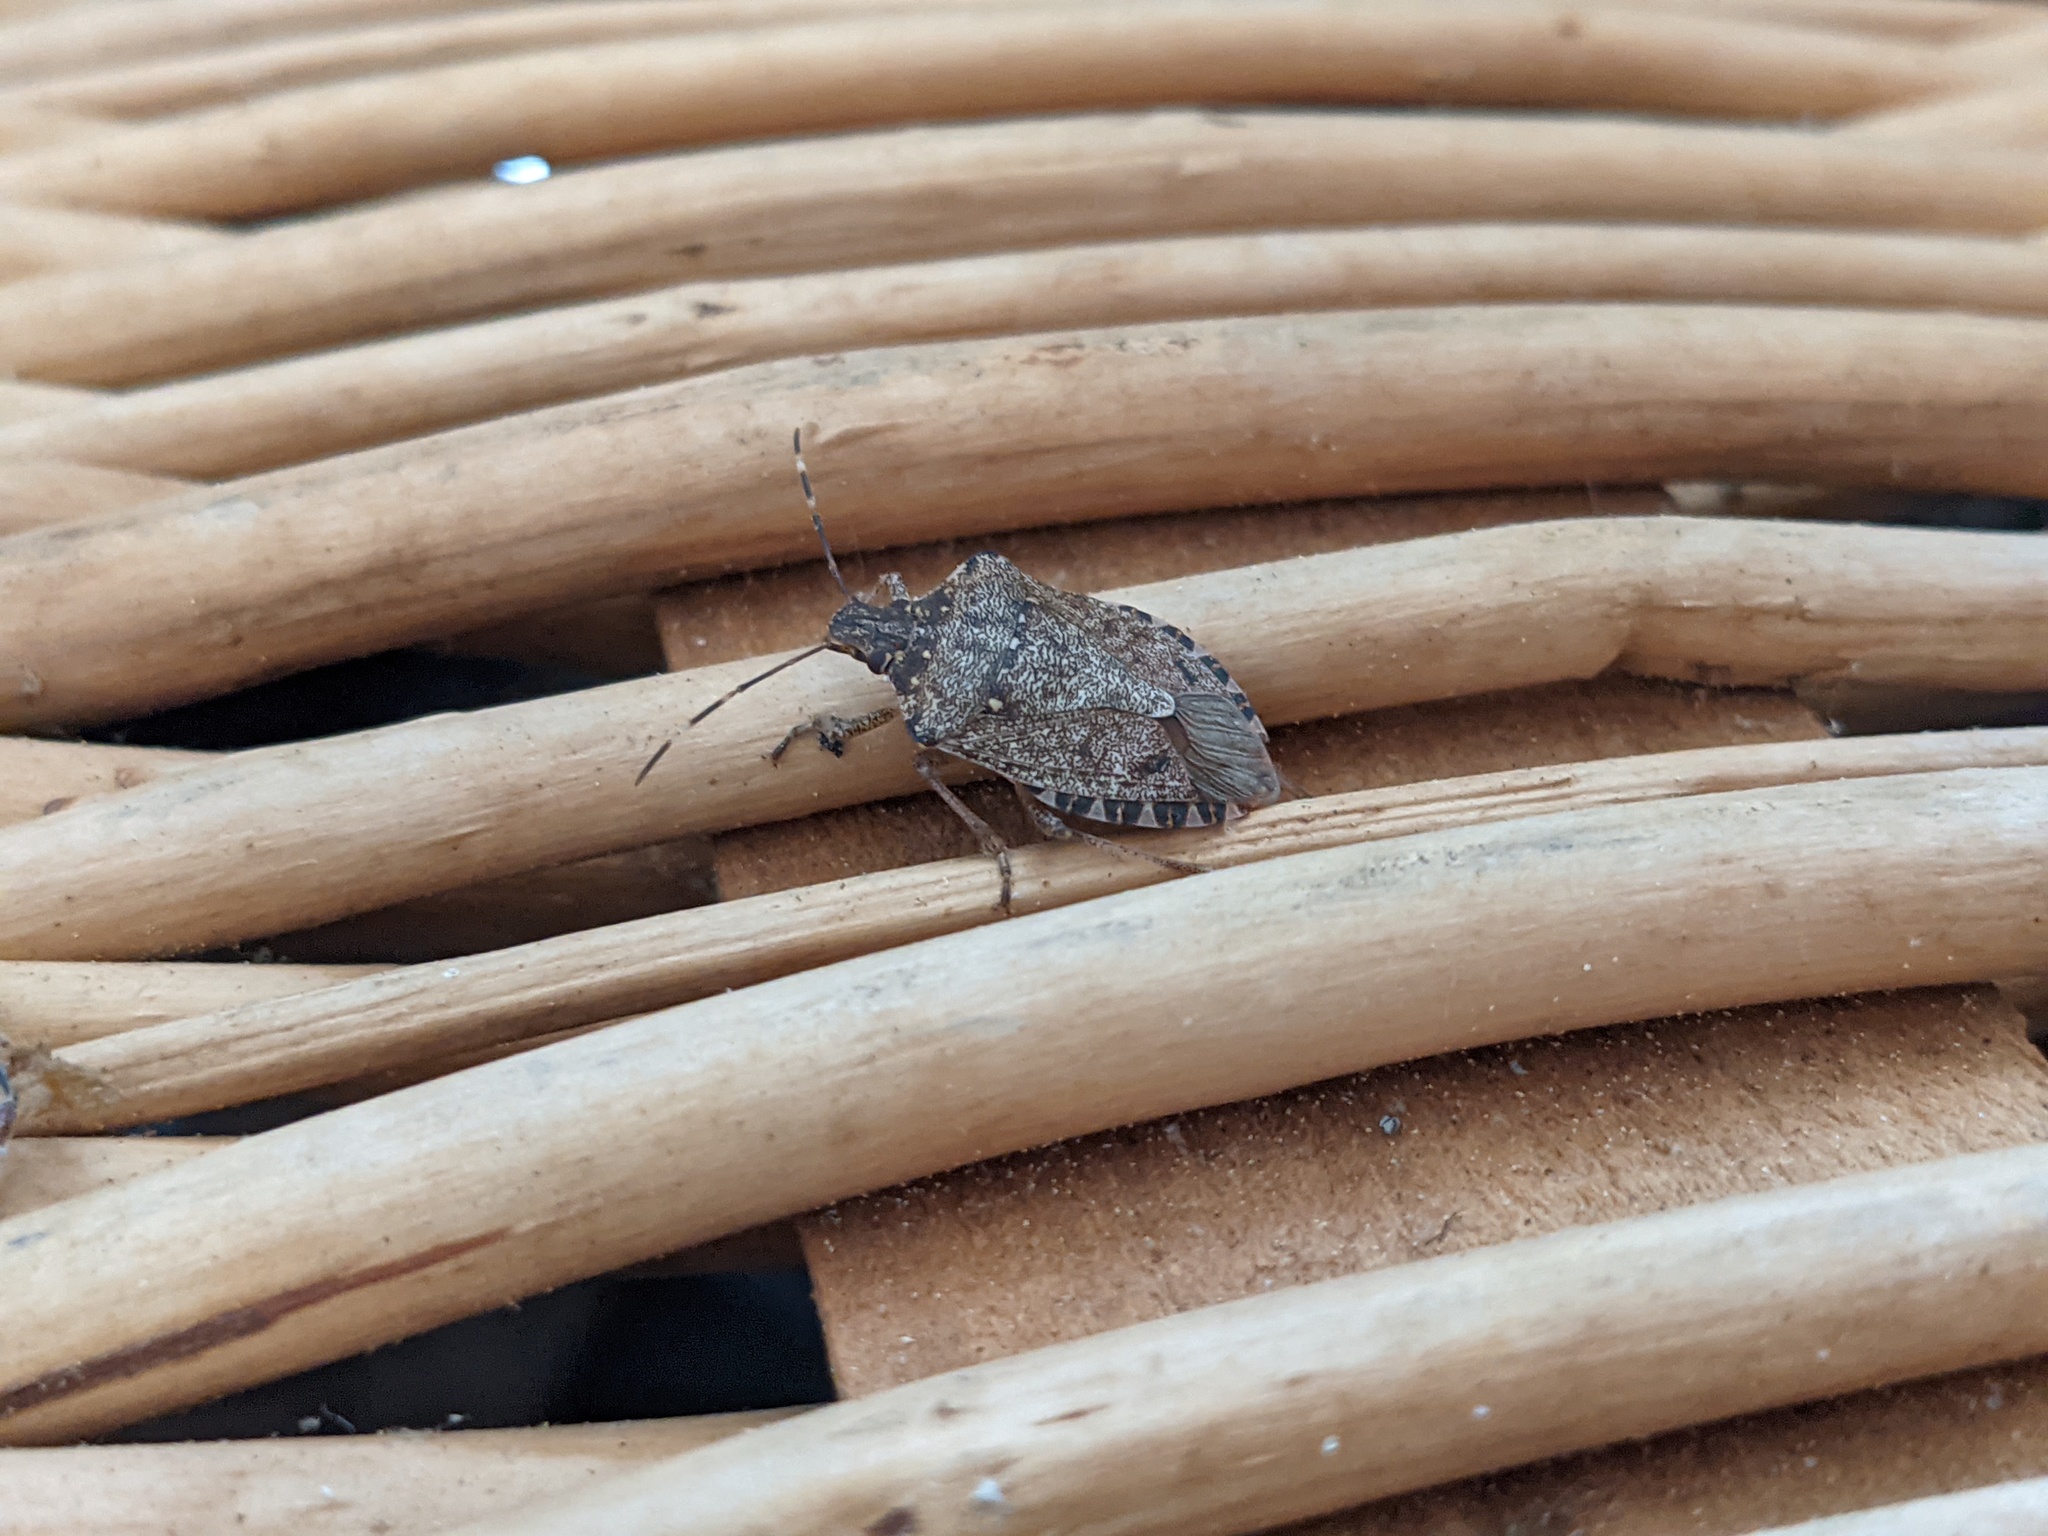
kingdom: Animalia
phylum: Arthropoda
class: Insecta
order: Hemiptera
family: Pentatomidae
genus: Halyomorpha
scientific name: Halyomorpha halys
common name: Brown marmorated stink bug
